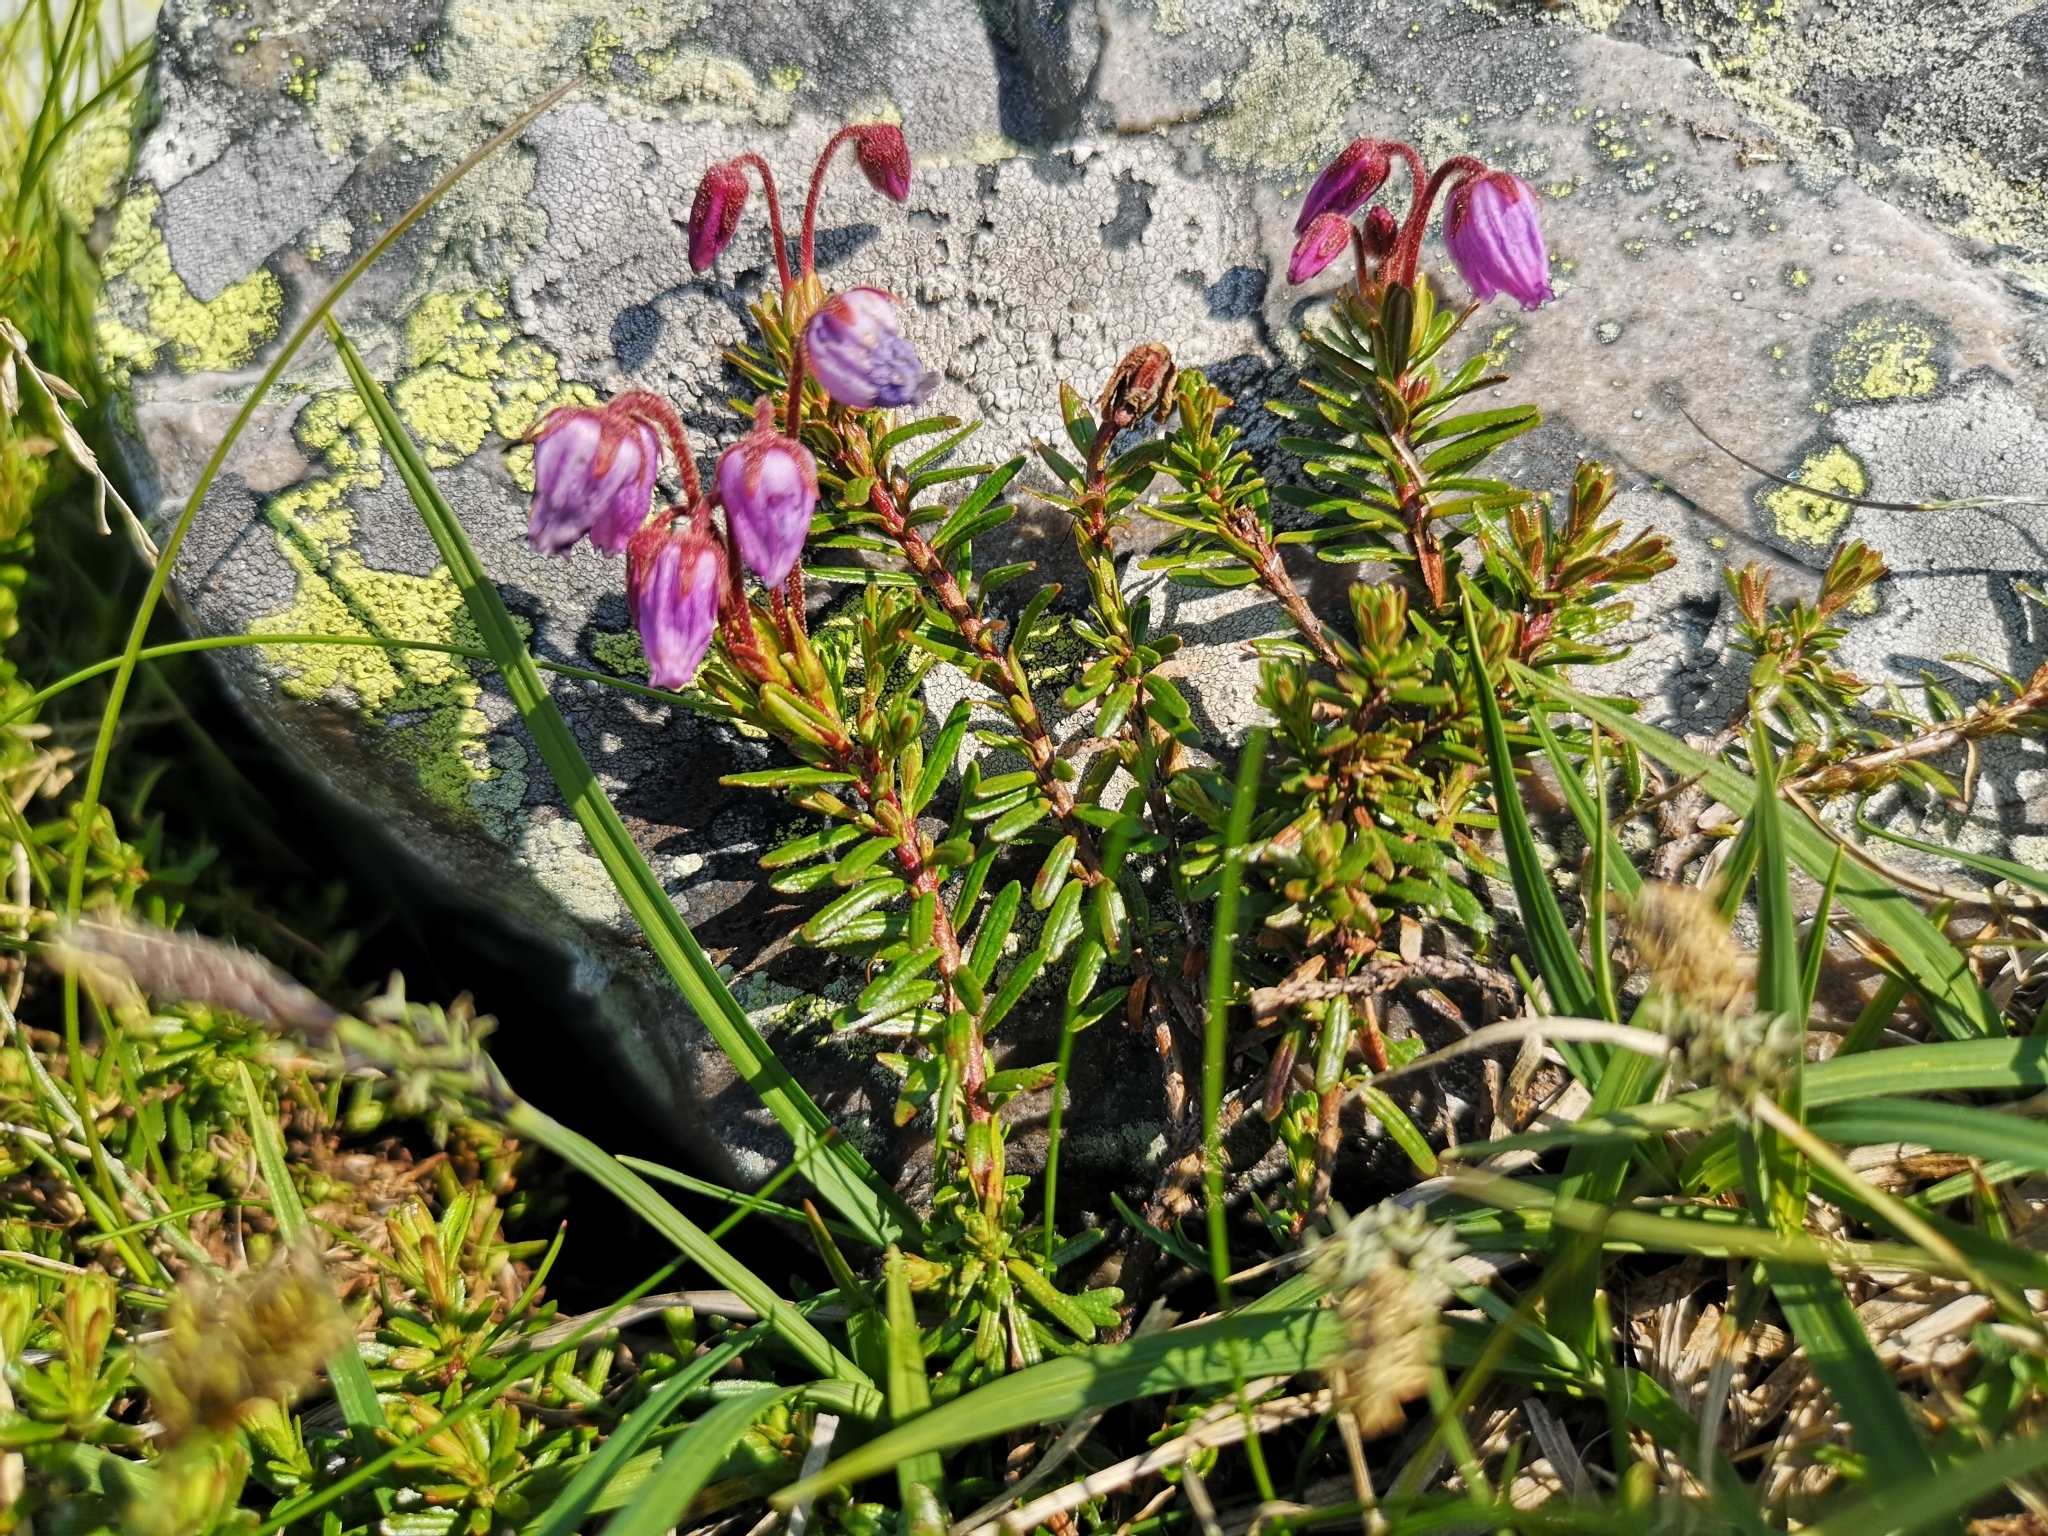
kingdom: Plantae
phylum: Tracheophyta
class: Magnoliopsida
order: Ericales
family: Ericaceae
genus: Phyllodoce
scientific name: Phyllodoce caerulea
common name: Blue heath
